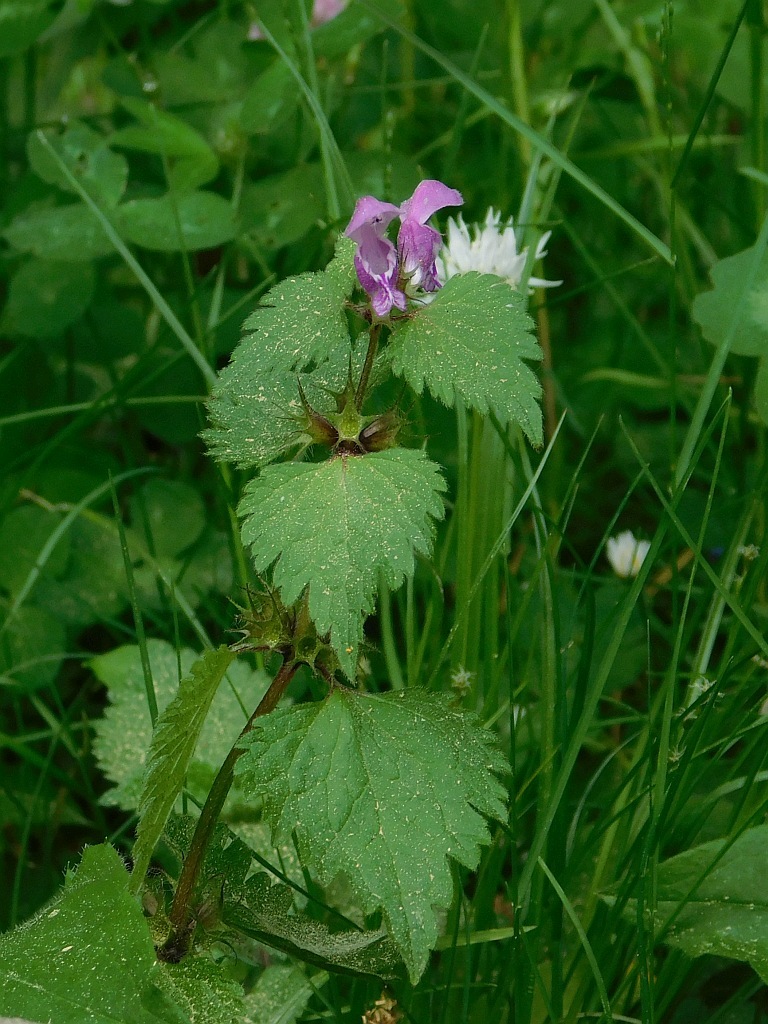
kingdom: Plantae
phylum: Tracheophyta
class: Magnoliopsida
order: Lamiales
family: Lamiaceae
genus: Lamium
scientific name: Lamium maculatum
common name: Spotted dead-nettle
